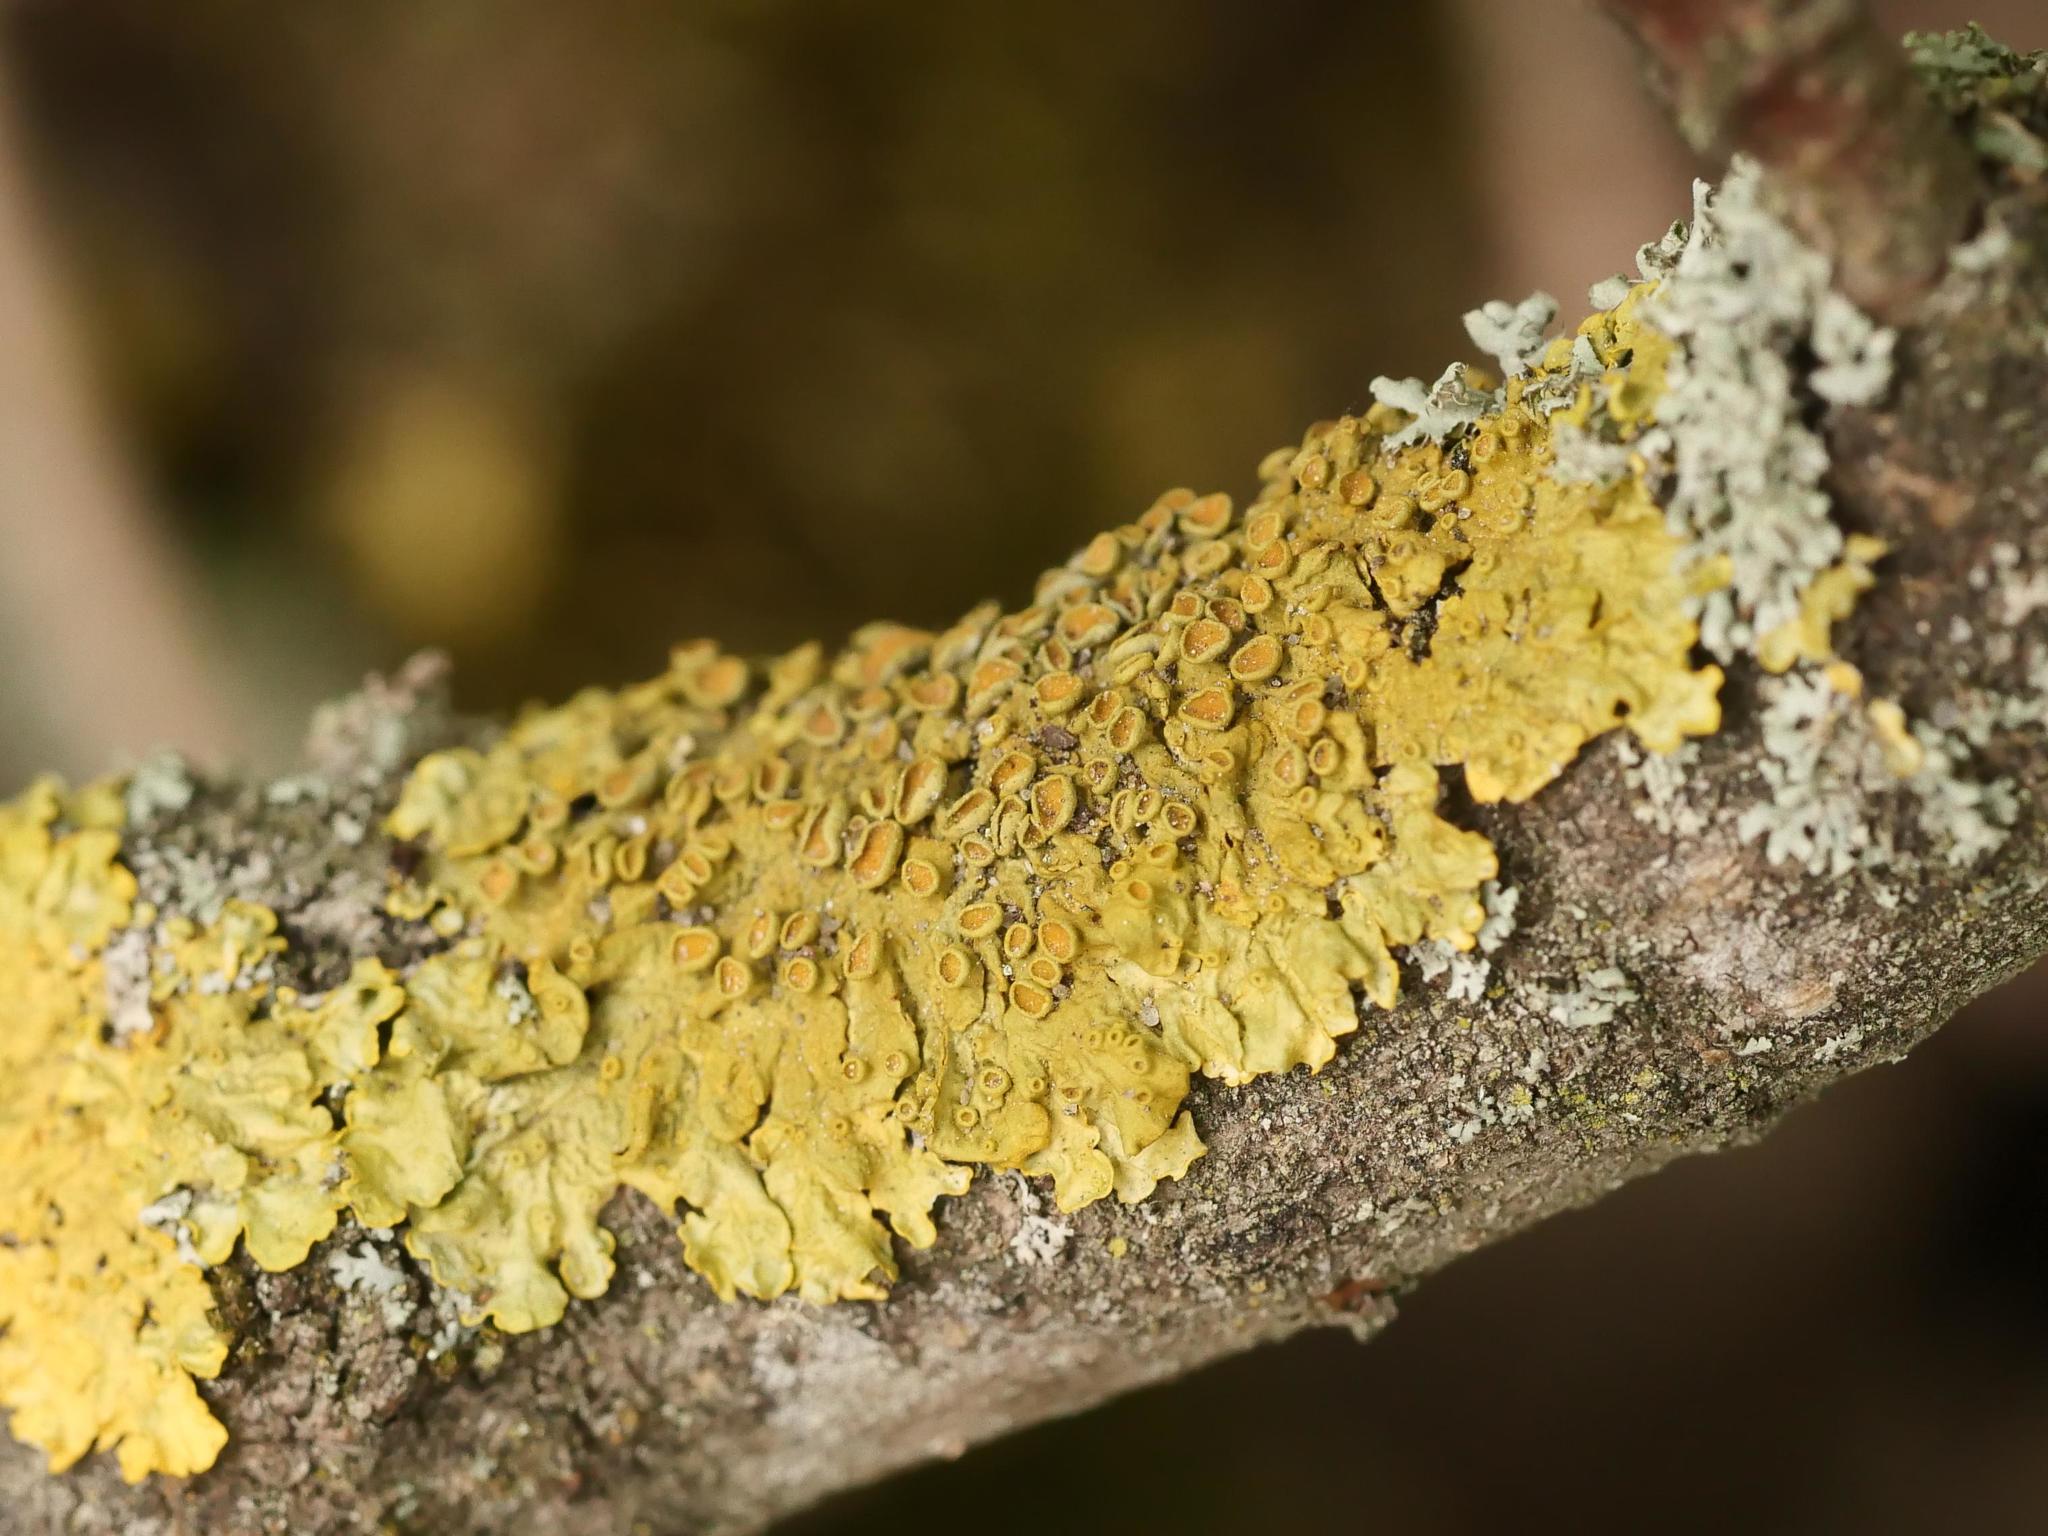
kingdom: Fungi
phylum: Ascomycota
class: Lecanoromycetes
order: Teloschistales
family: Teloschistaceae
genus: Xanthoria
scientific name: Xanthoria parietina
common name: Common orange lichen
